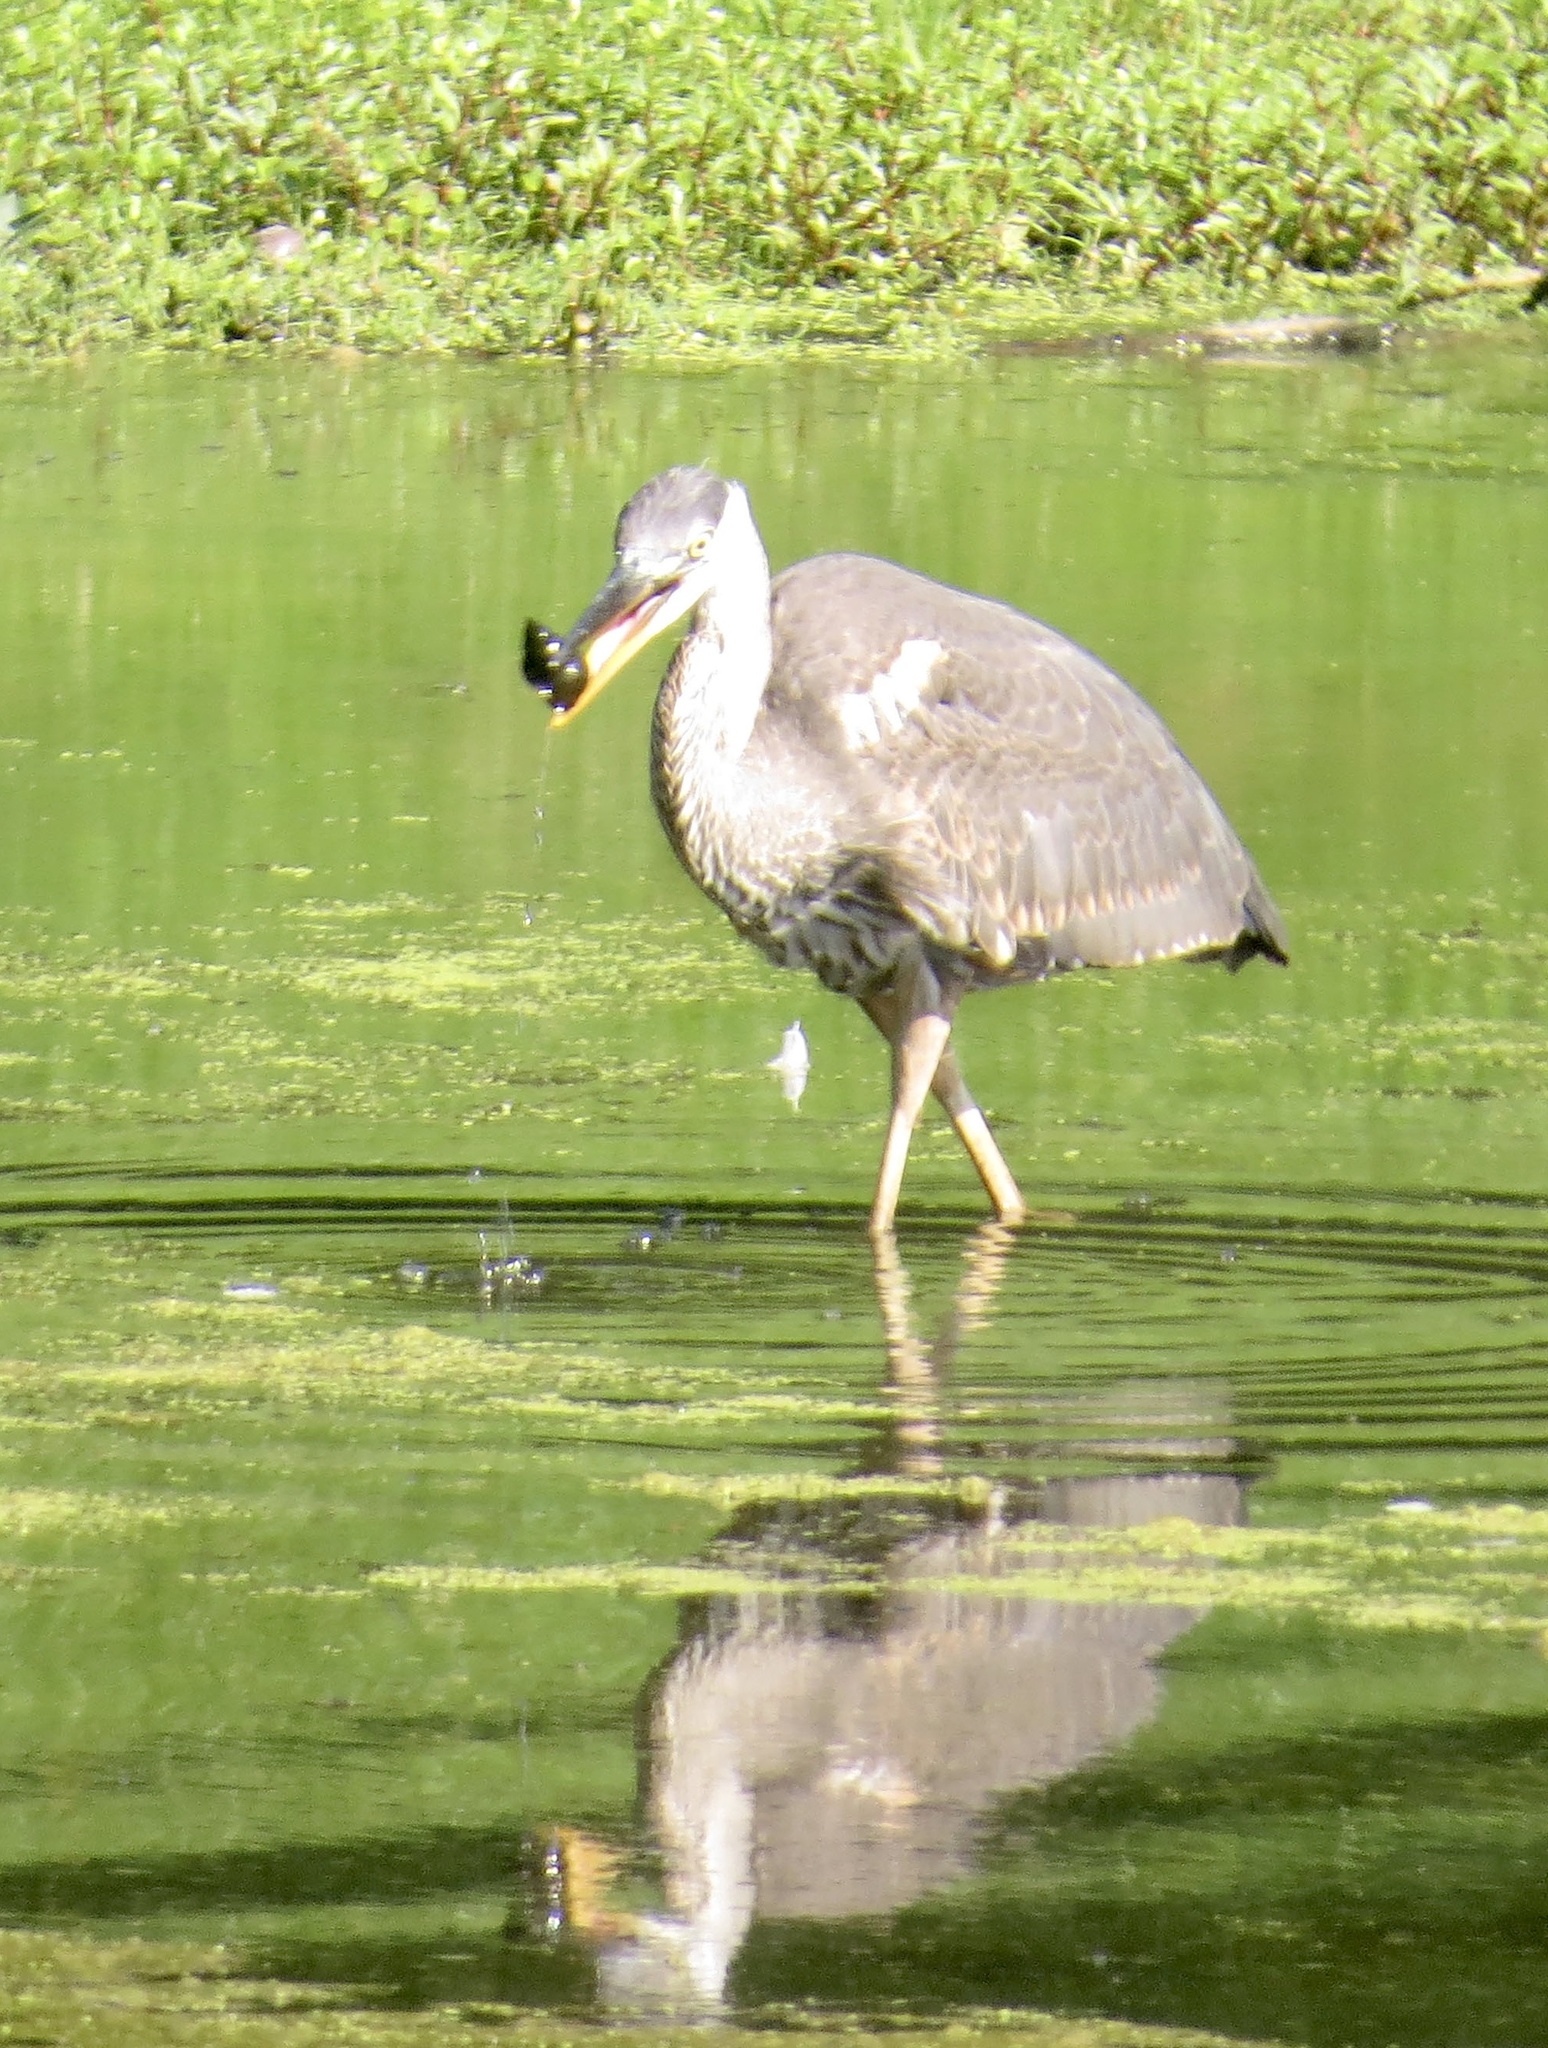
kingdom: Animalia
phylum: Mollusca
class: Gastropoda
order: Architaenioglossa
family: Viviparidae
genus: Cipangopaludina
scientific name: Cipangopaludina chinensis
